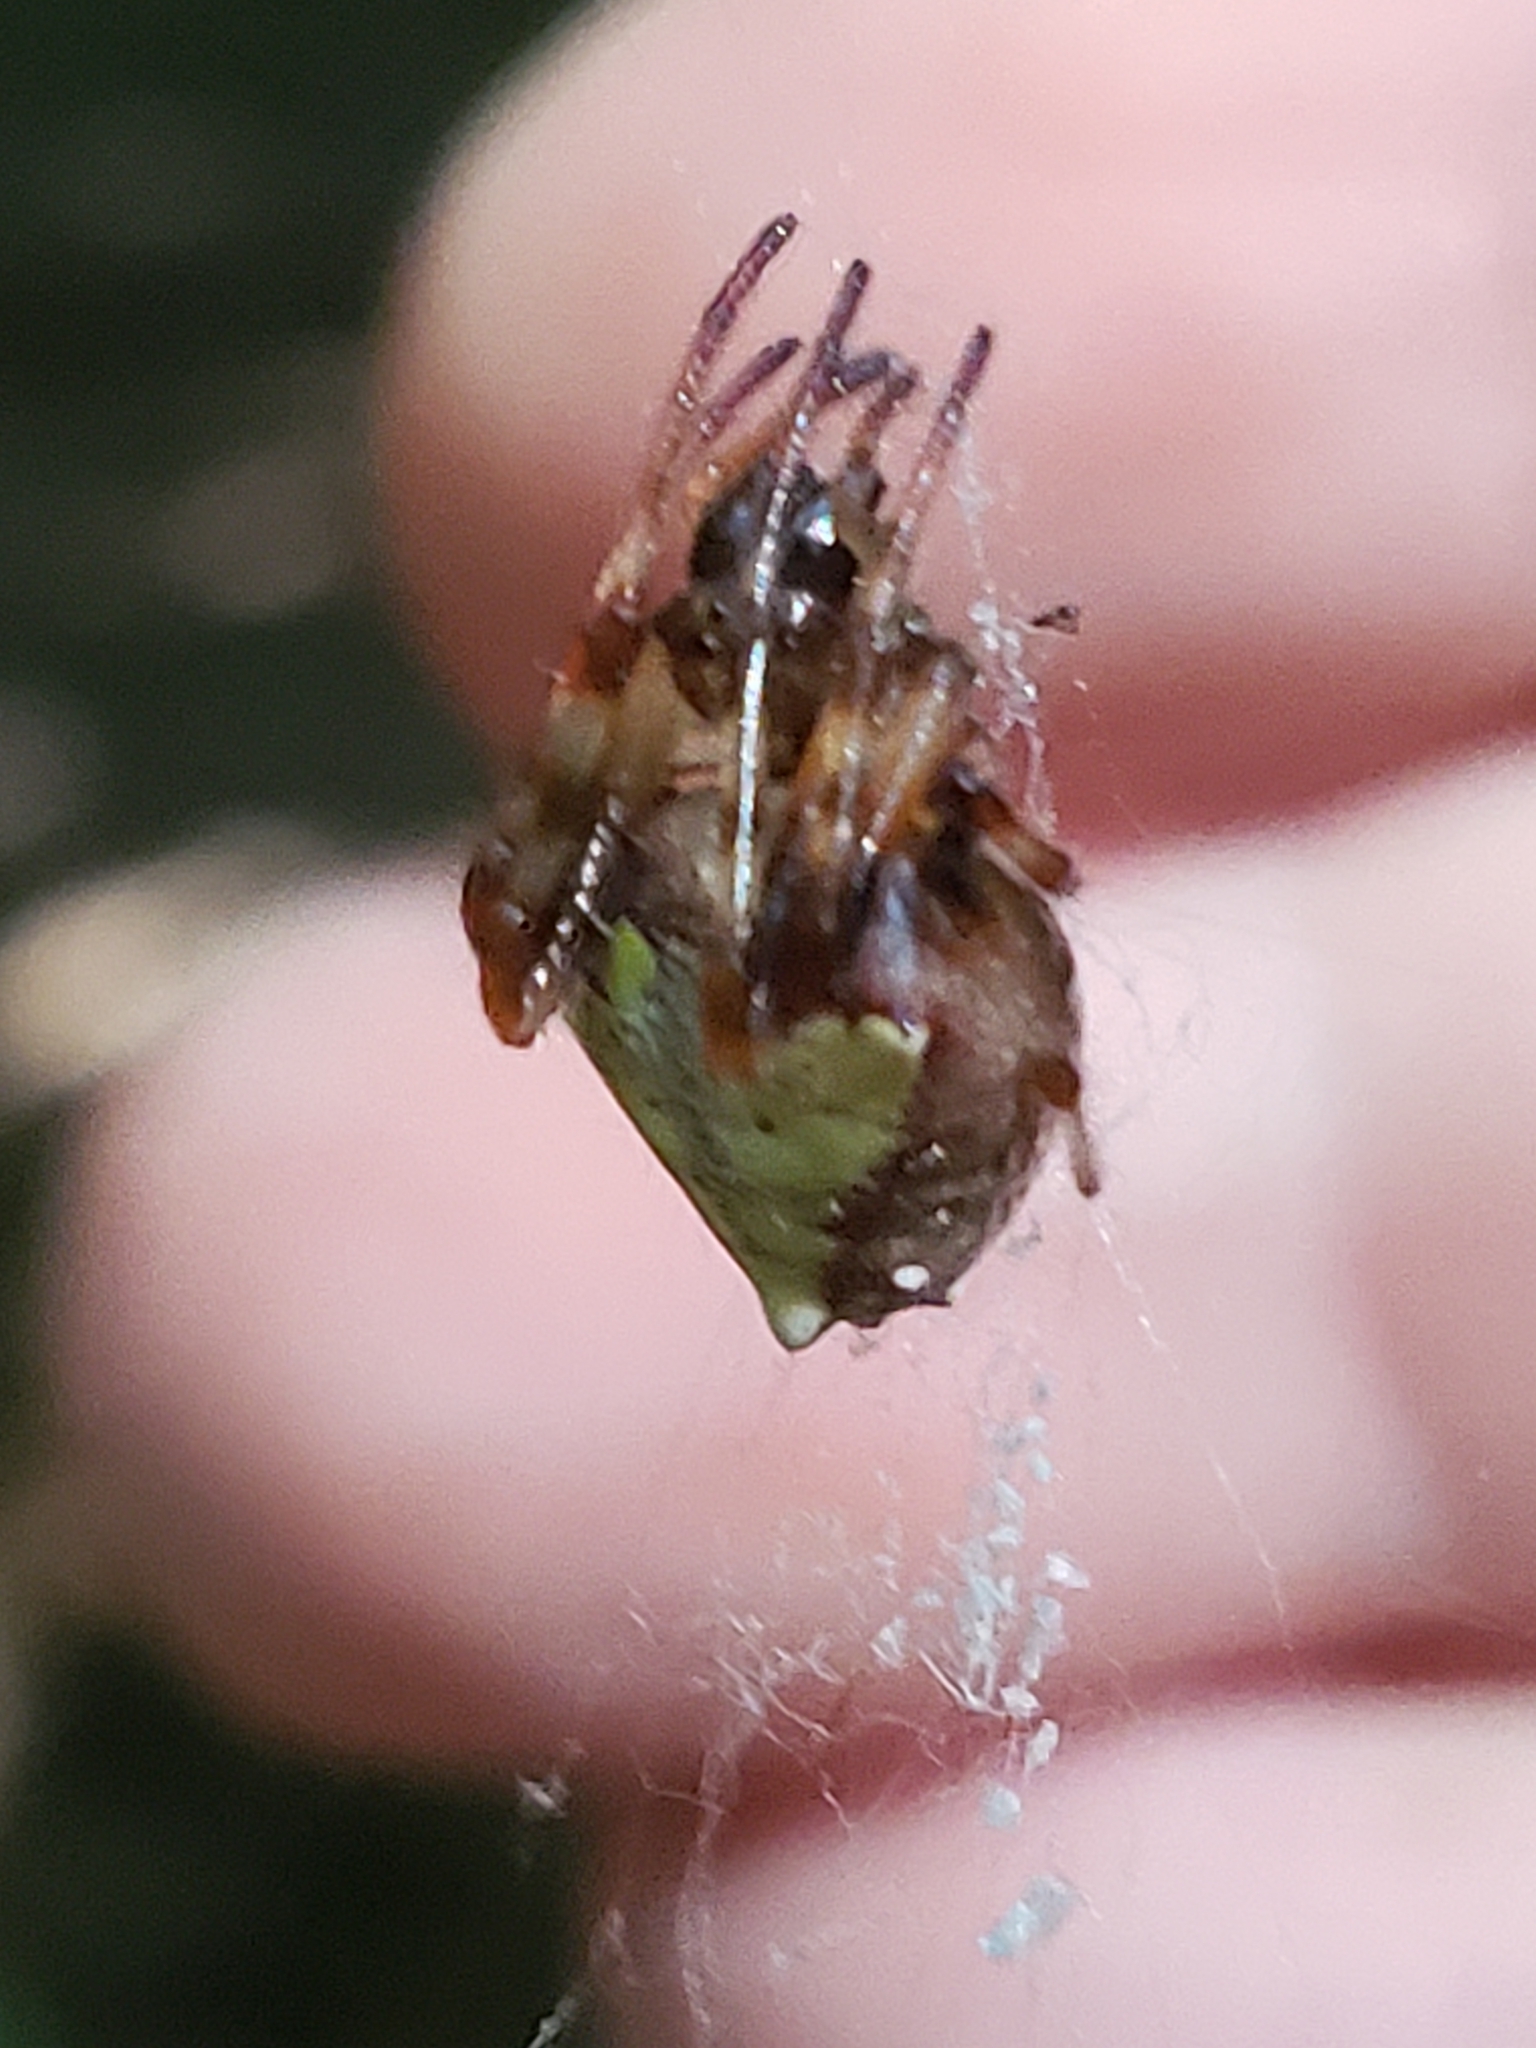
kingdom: Animalia
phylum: Arthropoda
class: Arachnida
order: Araneae
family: Araneidae
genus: Verrucosa
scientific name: Verrucosa arenata
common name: Orb weavers
